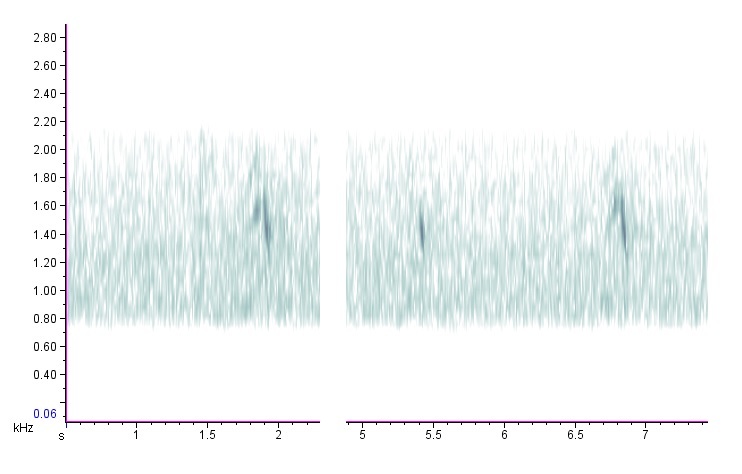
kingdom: Animalia
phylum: Chordata
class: Aves
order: Anseriformes
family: Anatidae
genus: Aix
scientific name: Aix sponsa
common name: Wood duck
